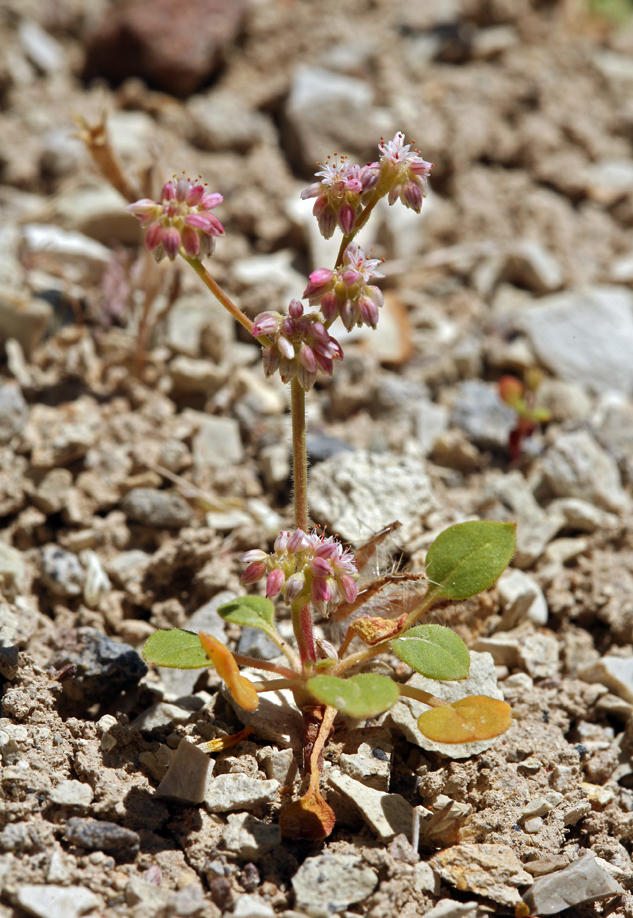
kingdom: Plantae
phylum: Tracheophyta
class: Magnoliopsida
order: Caryophyllales
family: Polygonaceae
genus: Eriogonum
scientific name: Eriogonum lemmonii
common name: Lemmon's wild buckwheat
